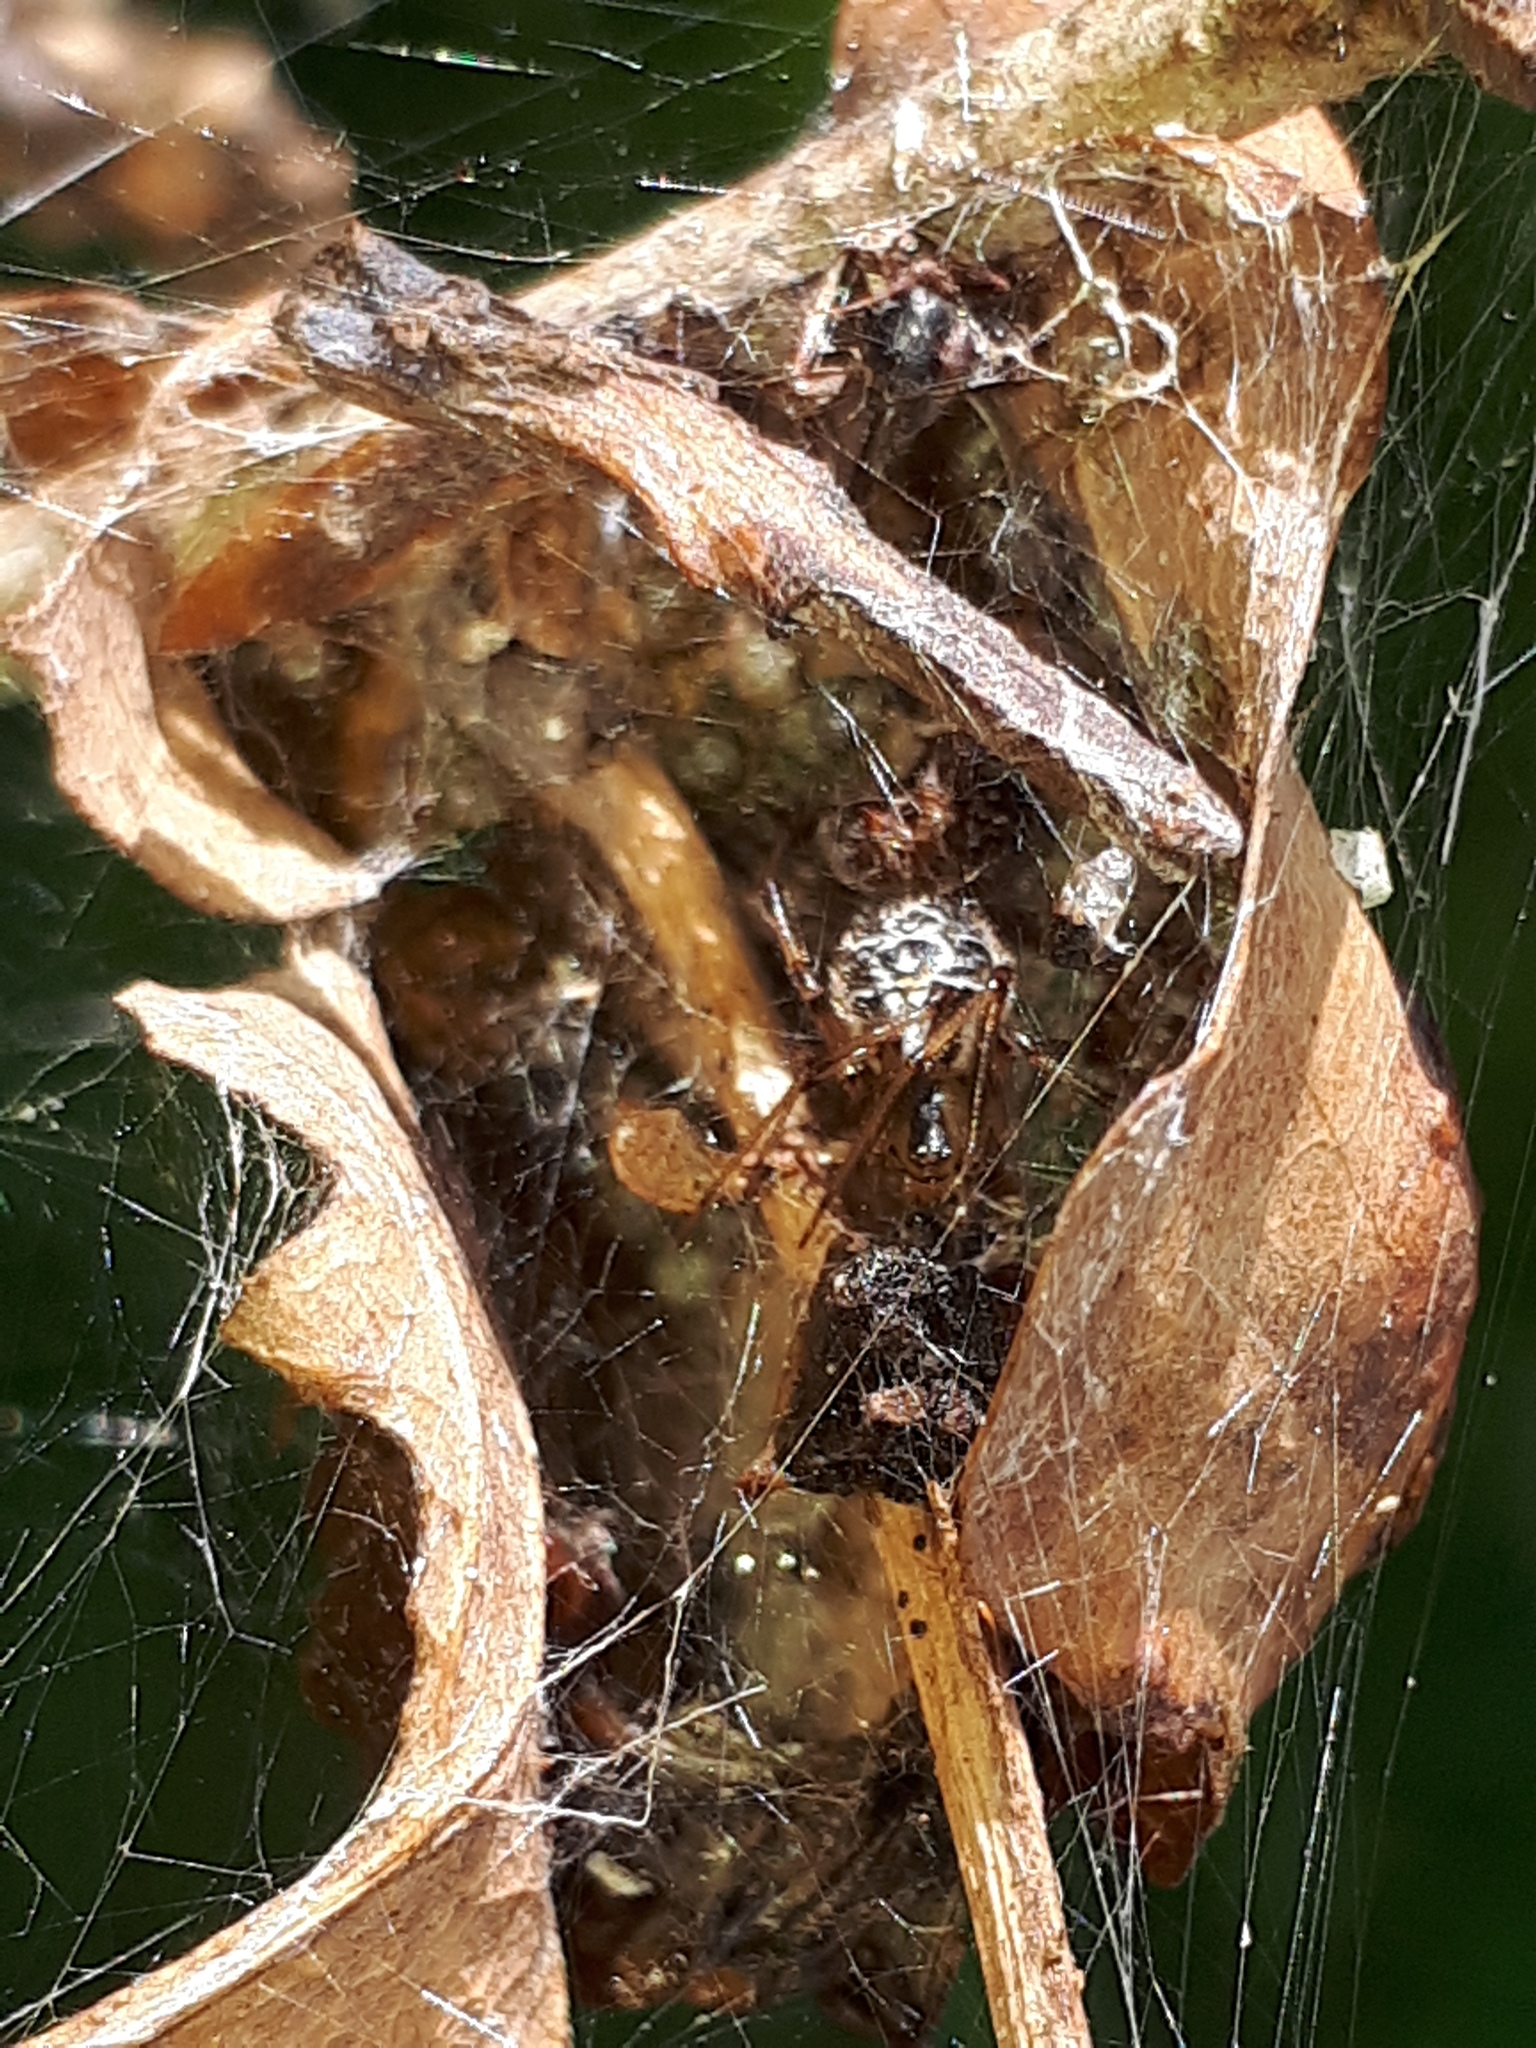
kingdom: Animalia
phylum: Arthropoda
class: Arachnida
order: Araneae
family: Theridiidae
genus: Phylloneta
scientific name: Phylloneta impressa
